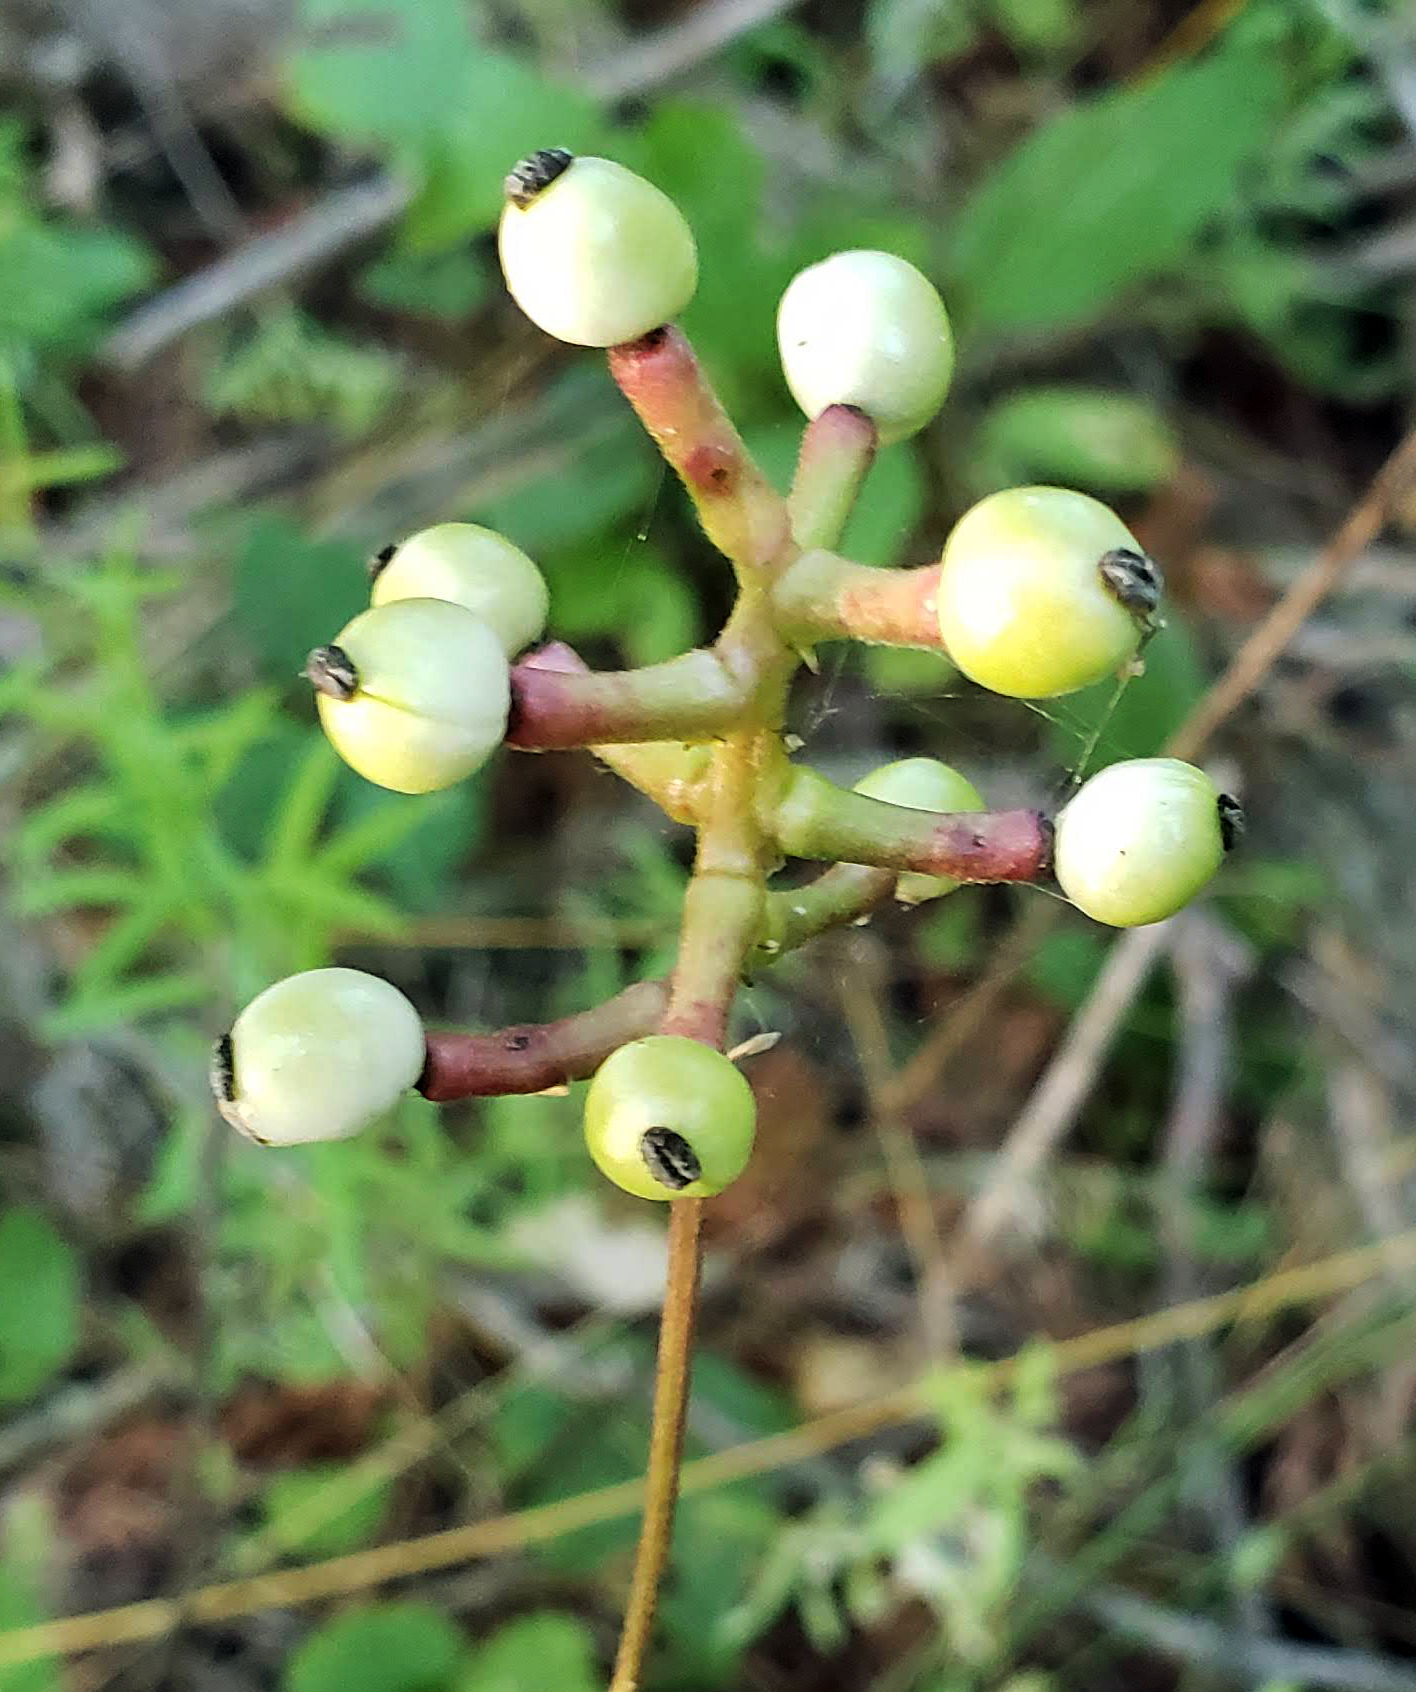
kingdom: Plantae
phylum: Tracheophyta
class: Magnoliopsida
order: Ranunculales
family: Ranunculaceae
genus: Actaea
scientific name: Actaea pachypoda
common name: Doll's-eyes
